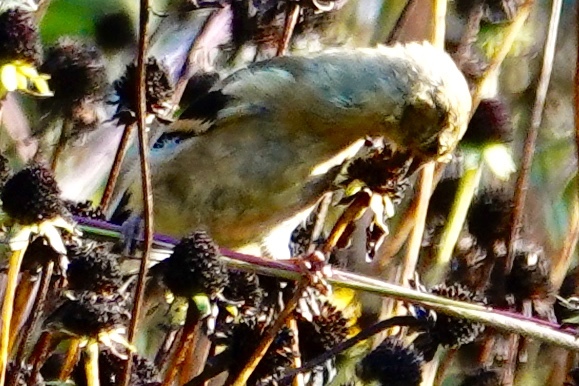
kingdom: Animalia
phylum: Chordata
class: Aves
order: Passeriformes
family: Fringillidae
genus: Spinus
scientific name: Spinus tristis
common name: American goldfinch
